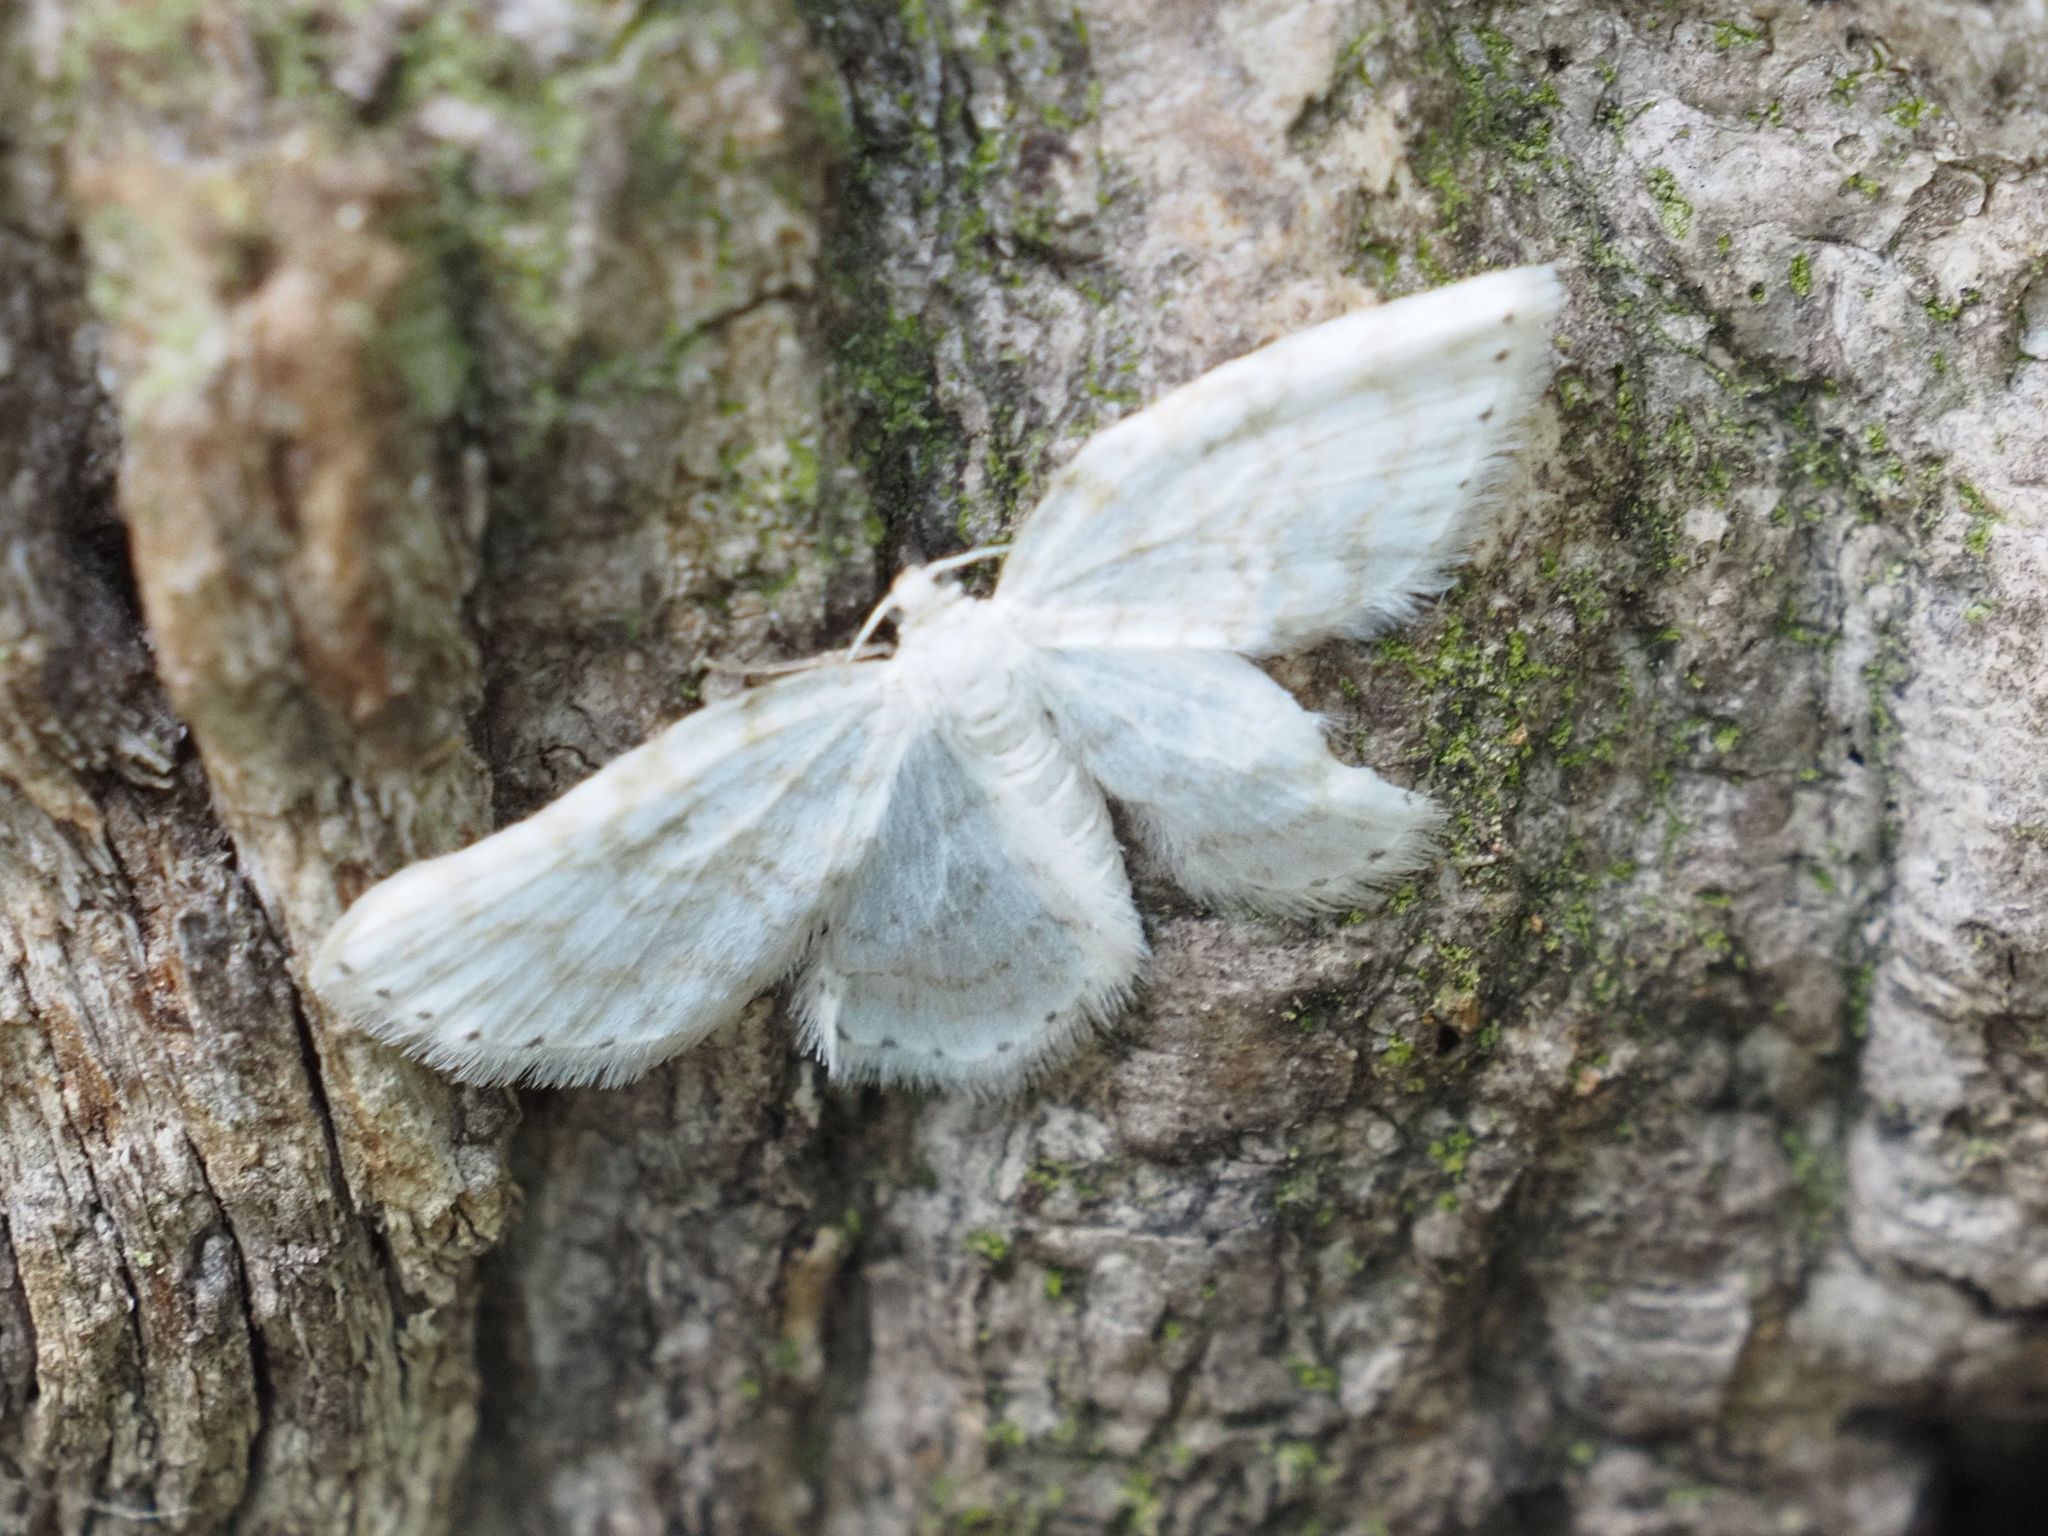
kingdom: Animalia
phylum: Arthropoda
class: Insecta
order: Lepidoptera
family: Geometridae
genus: Asthena
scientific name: Asthena albulata
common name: Small white wave
